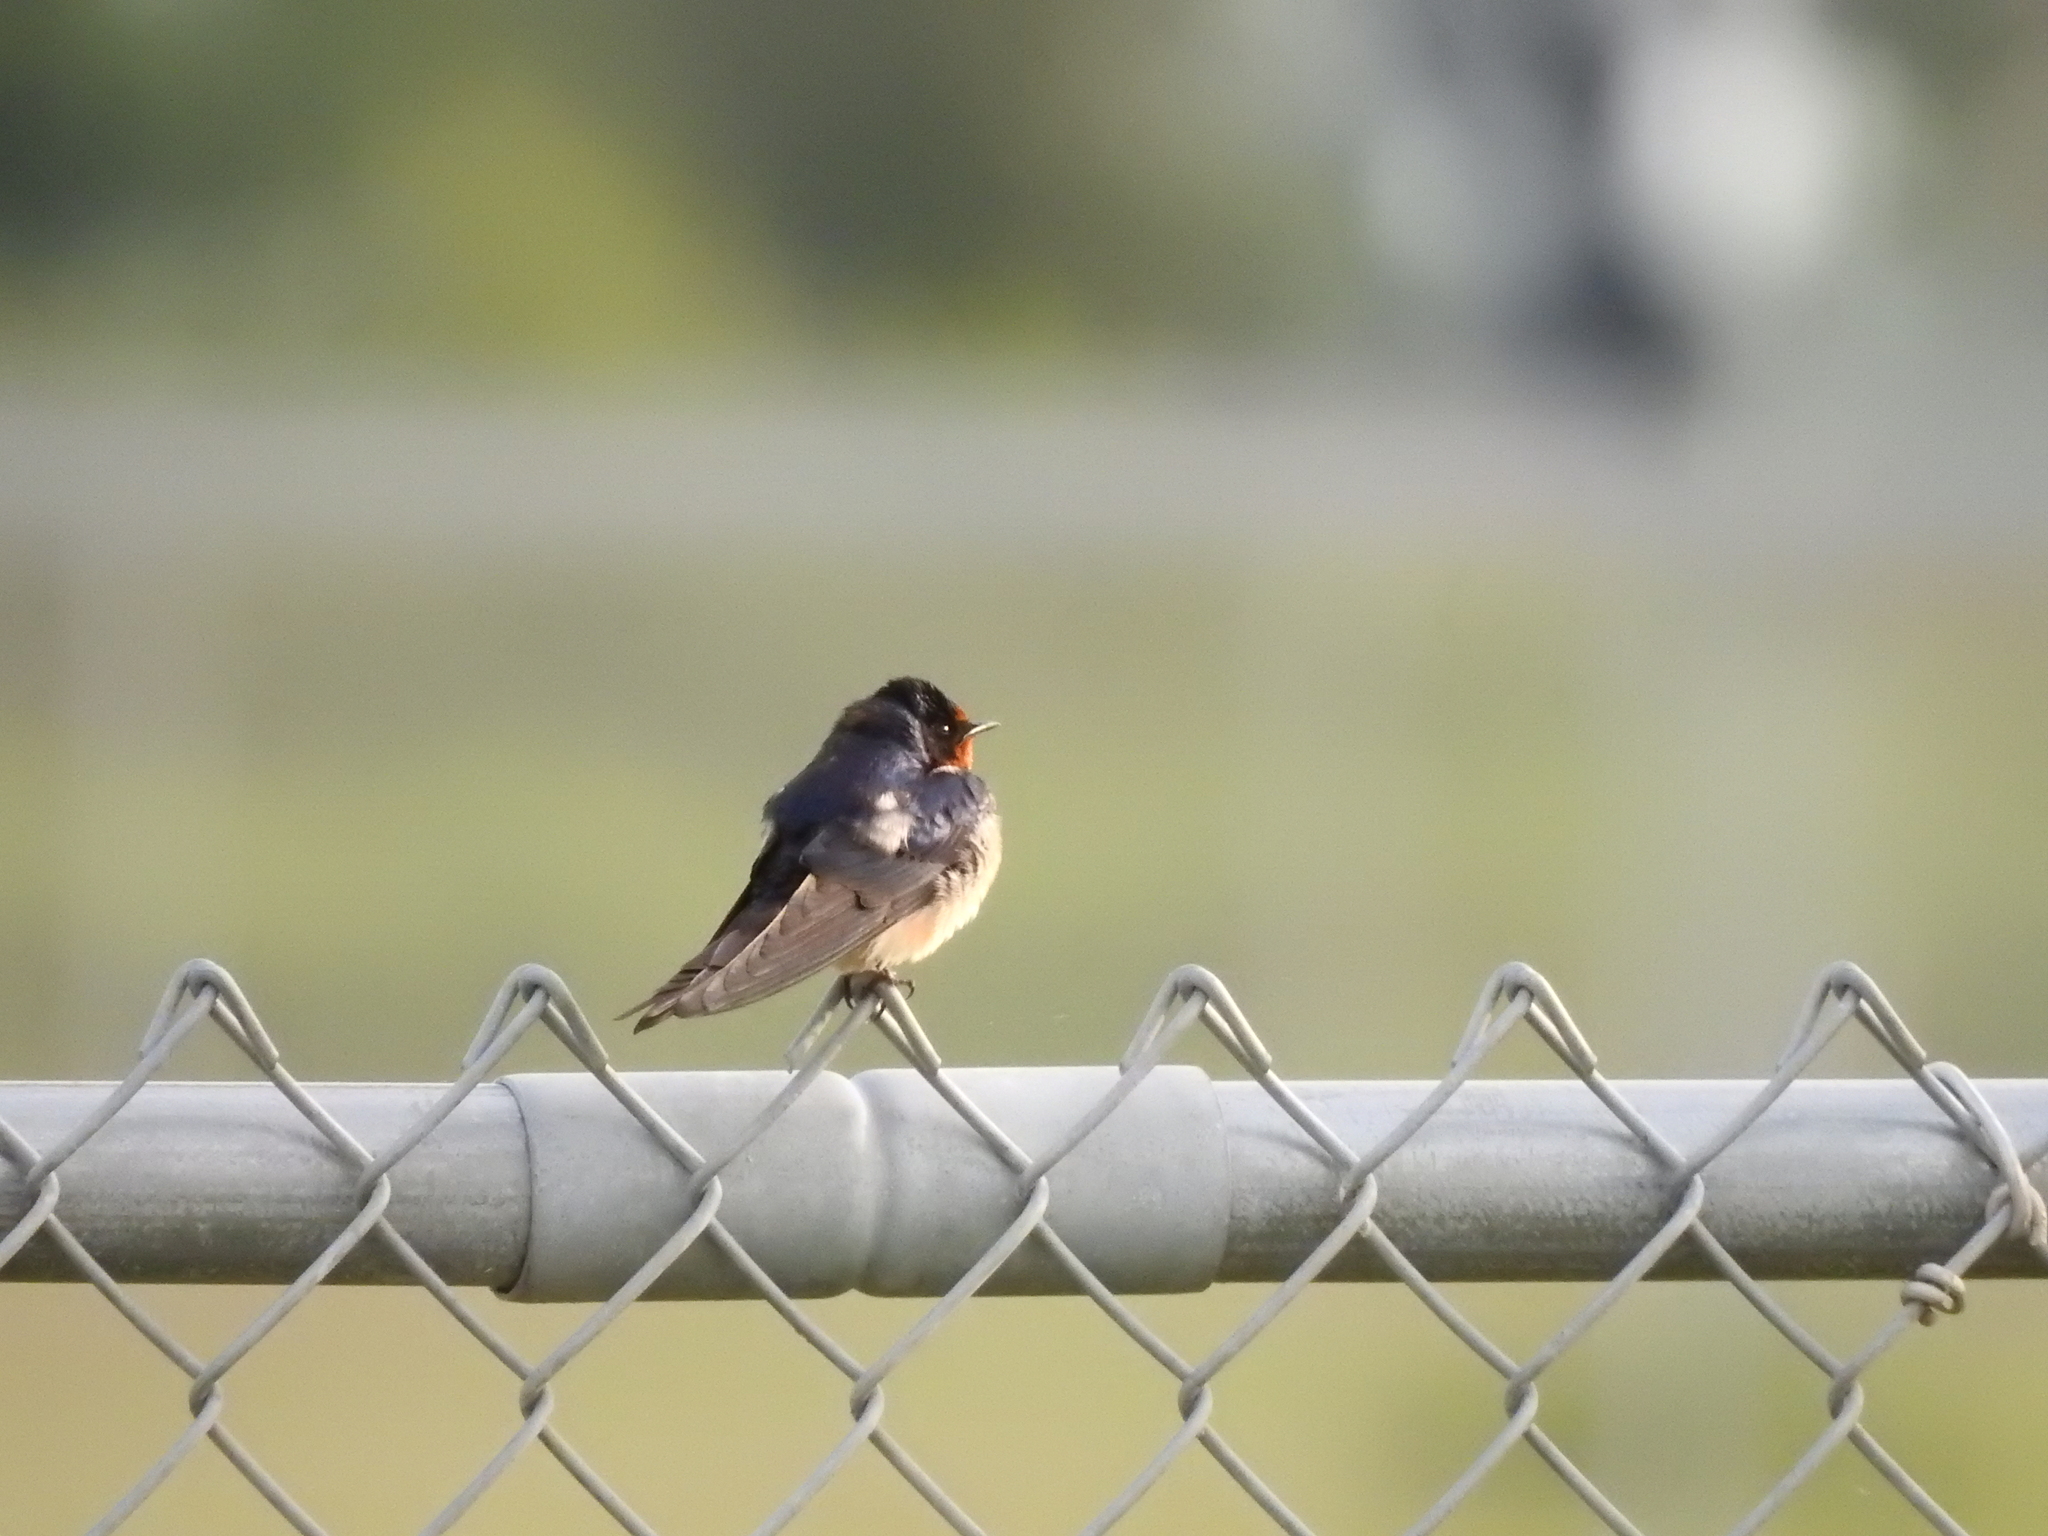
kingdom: Animalia
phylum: Chordata
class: Aves
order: Passeriformes
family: Hirundinidae
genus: Hirundo
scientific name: Hirundo rustica
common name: Barn swallow
